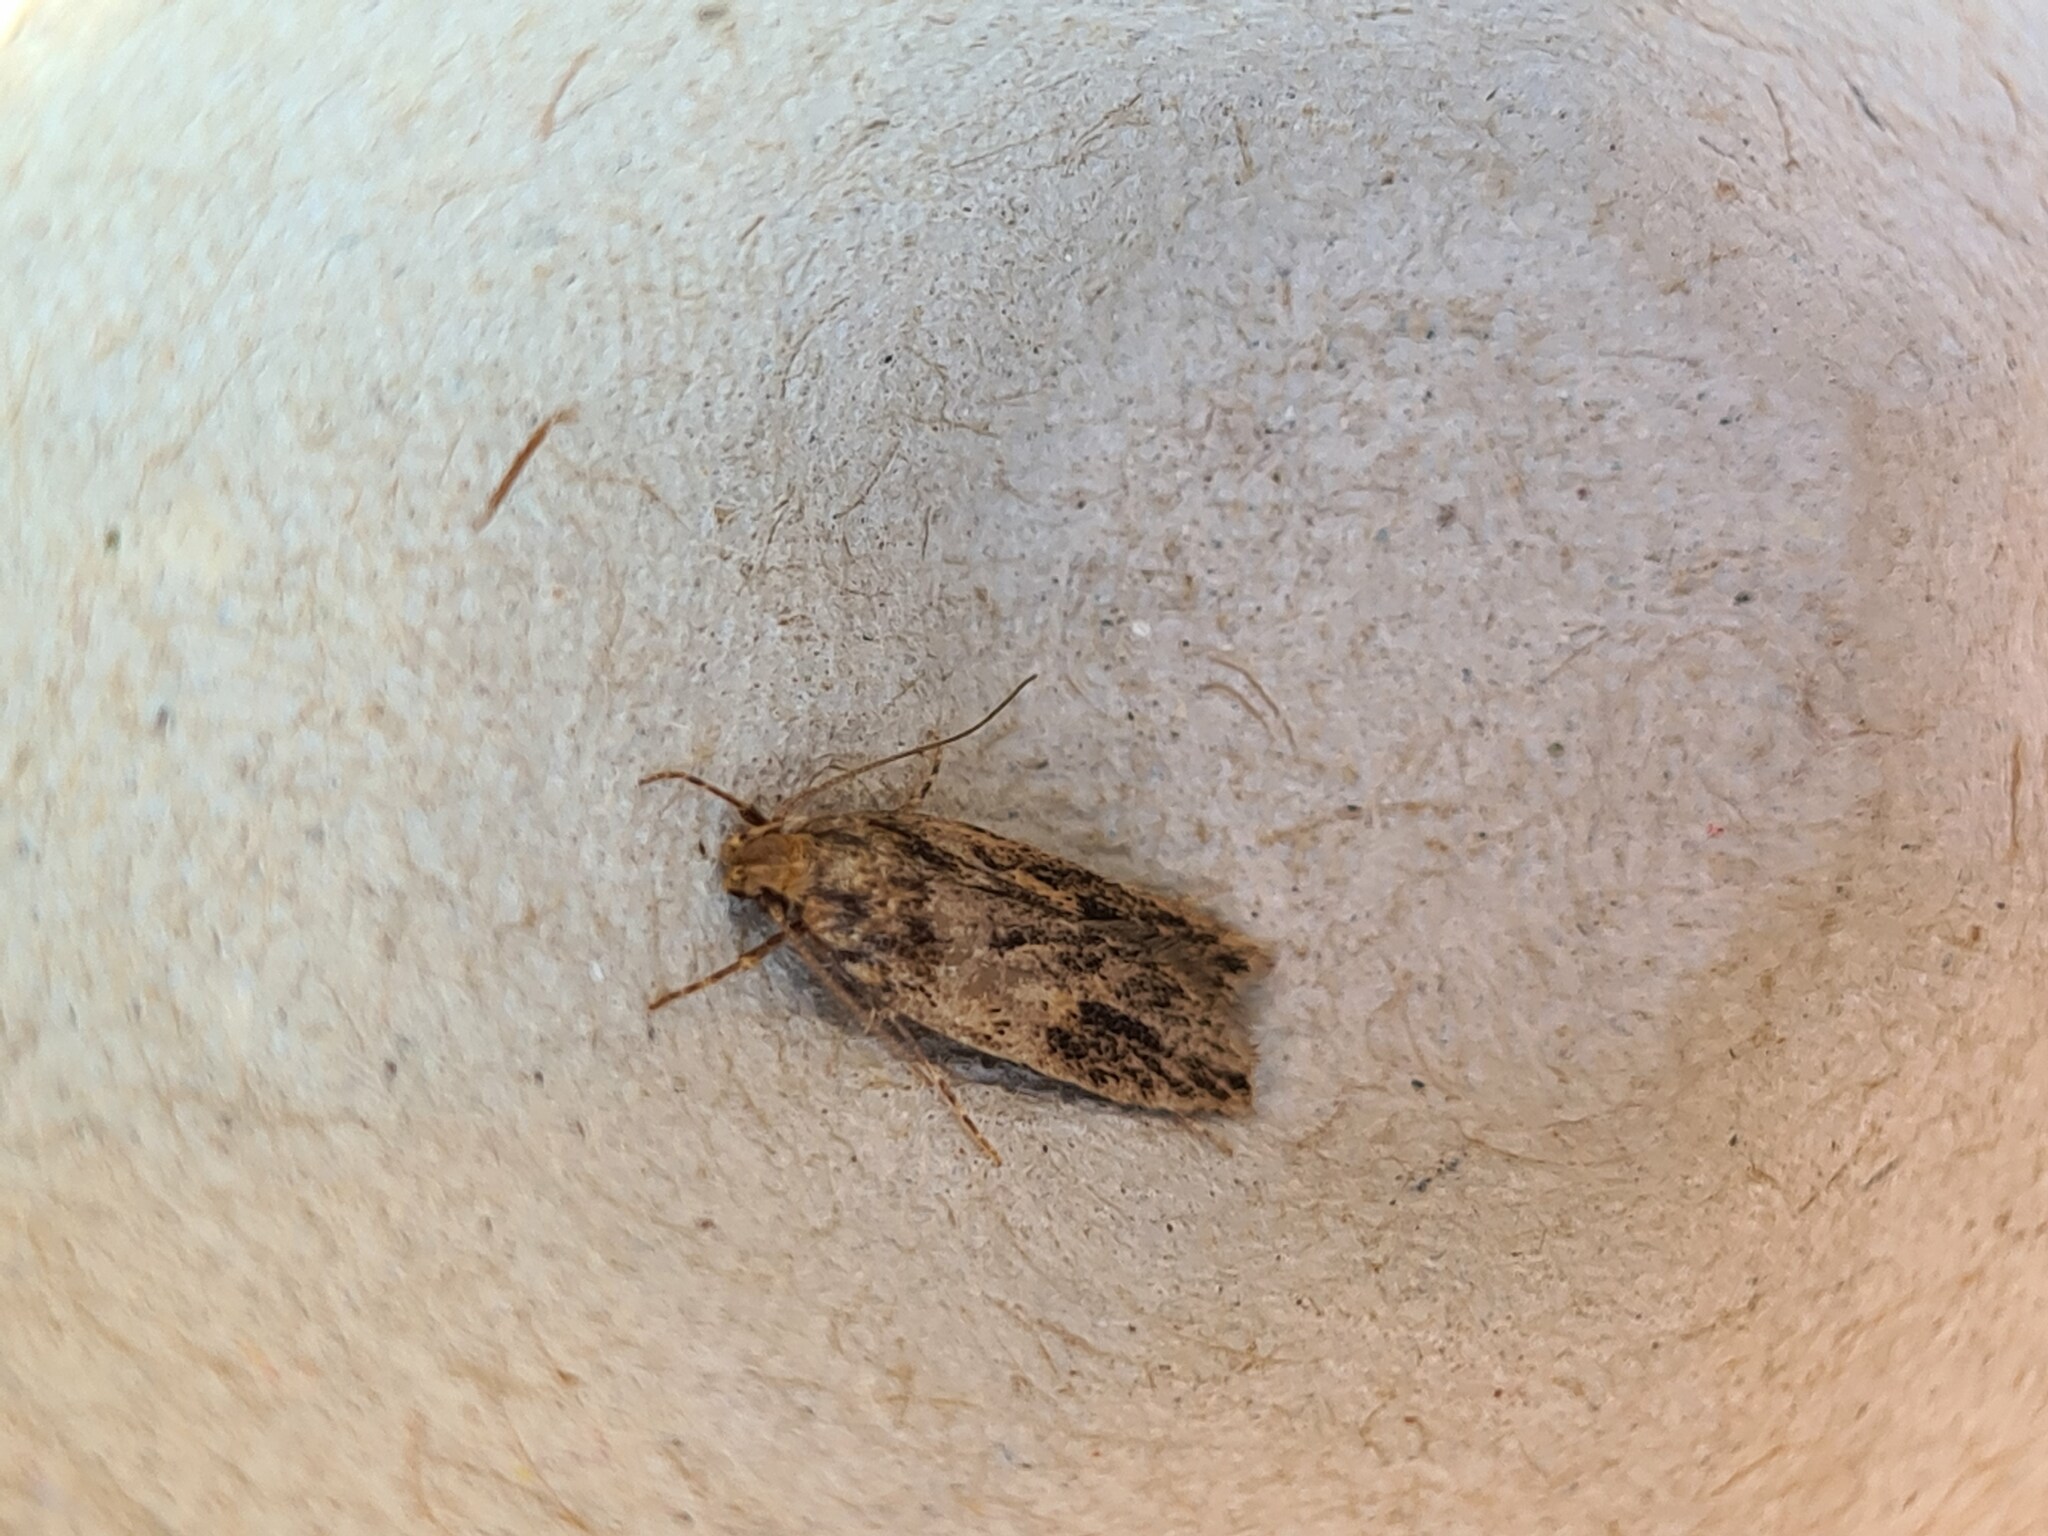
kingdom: Animalia
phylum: Arthropoda
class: Insecta
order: Lepidoptera
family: Oecophoridae
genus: Hofmannophila
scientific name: Hofmannophila pseudospretella
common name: Brown house moth
